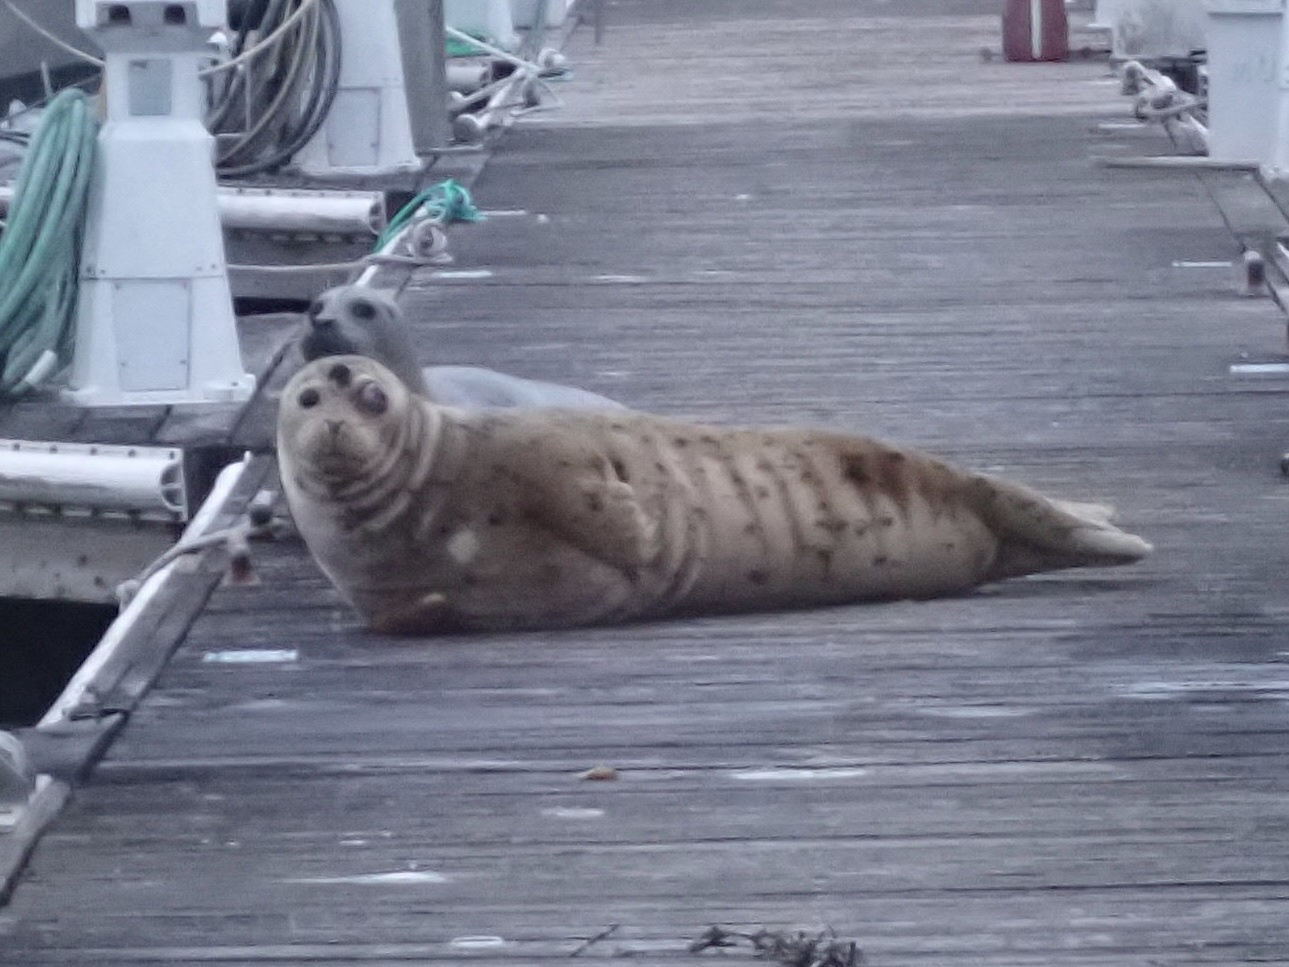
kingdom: Animalia
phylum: Chordata
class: Mammalia
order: Carnivora
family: Phocidae
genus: Phoca
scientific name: Phoca vitulina
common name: Harbor seal
